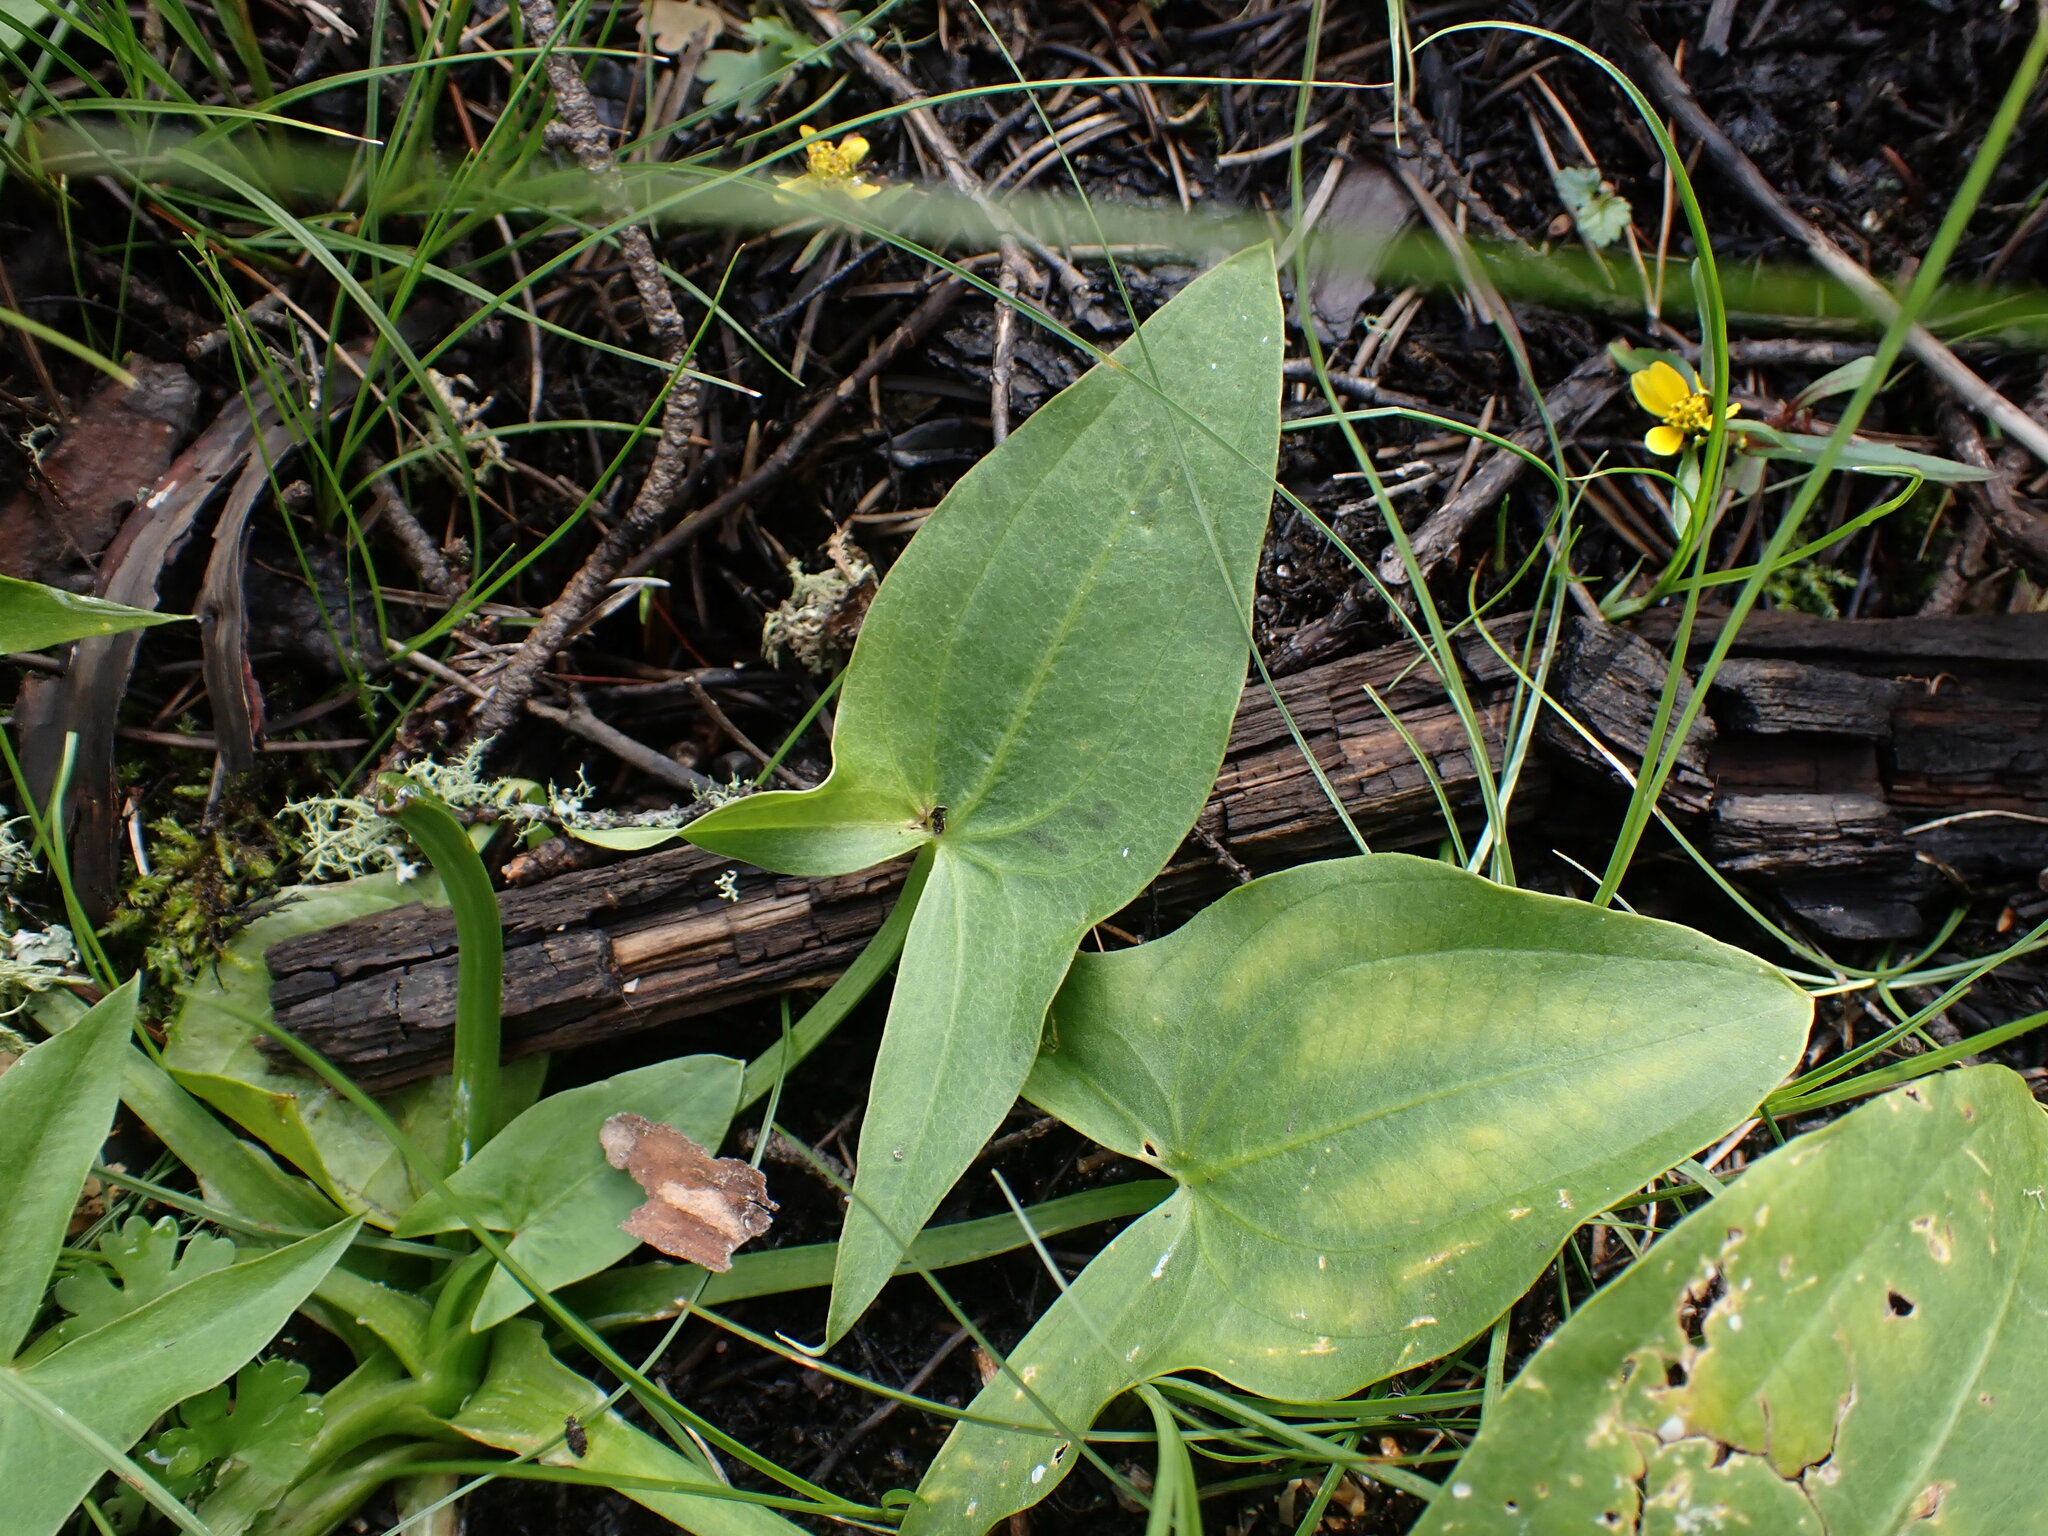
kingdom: Plantae
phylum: Tracheophyta
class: Liliopsida
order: Alismatales
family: Alismataceae
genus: Sagittaria
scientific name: Sagittaria cuneata
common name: Northern arrowhead
